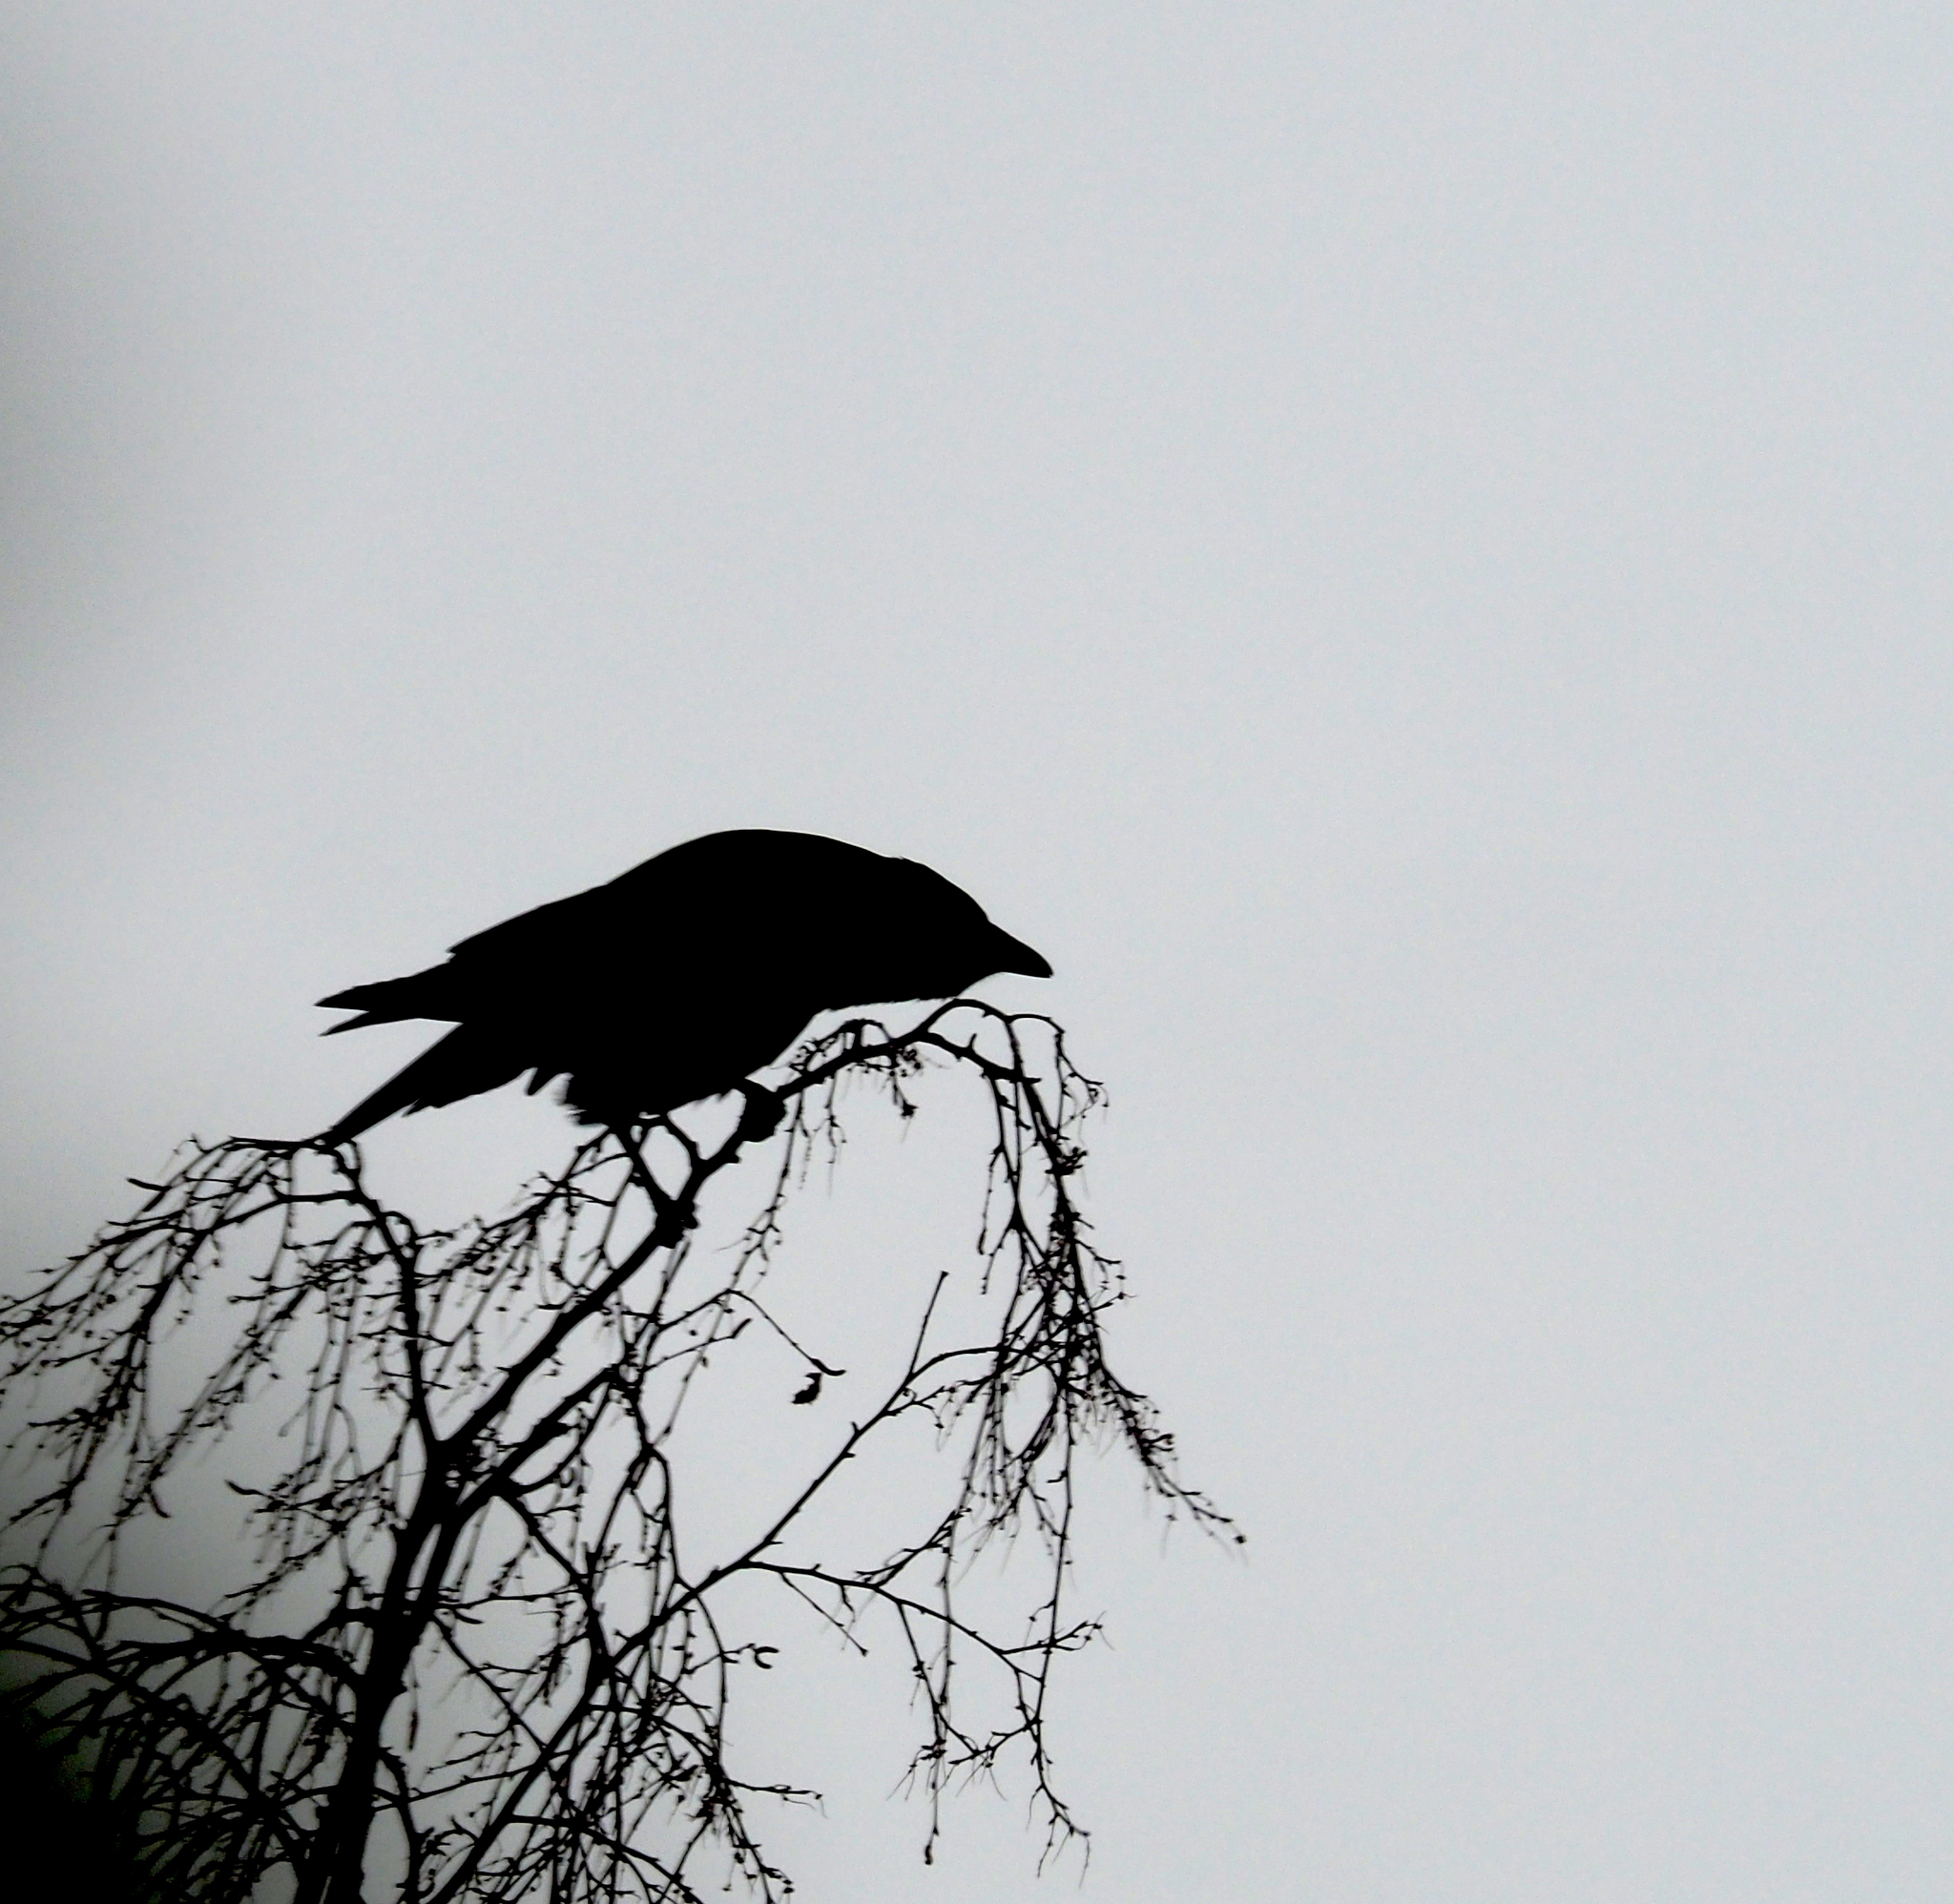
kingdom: Animalia
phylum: Chordata
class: Aves
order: Passeriformes
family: Corvidae
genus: Corvus
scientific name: Corvus corone
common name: Carrion crow
